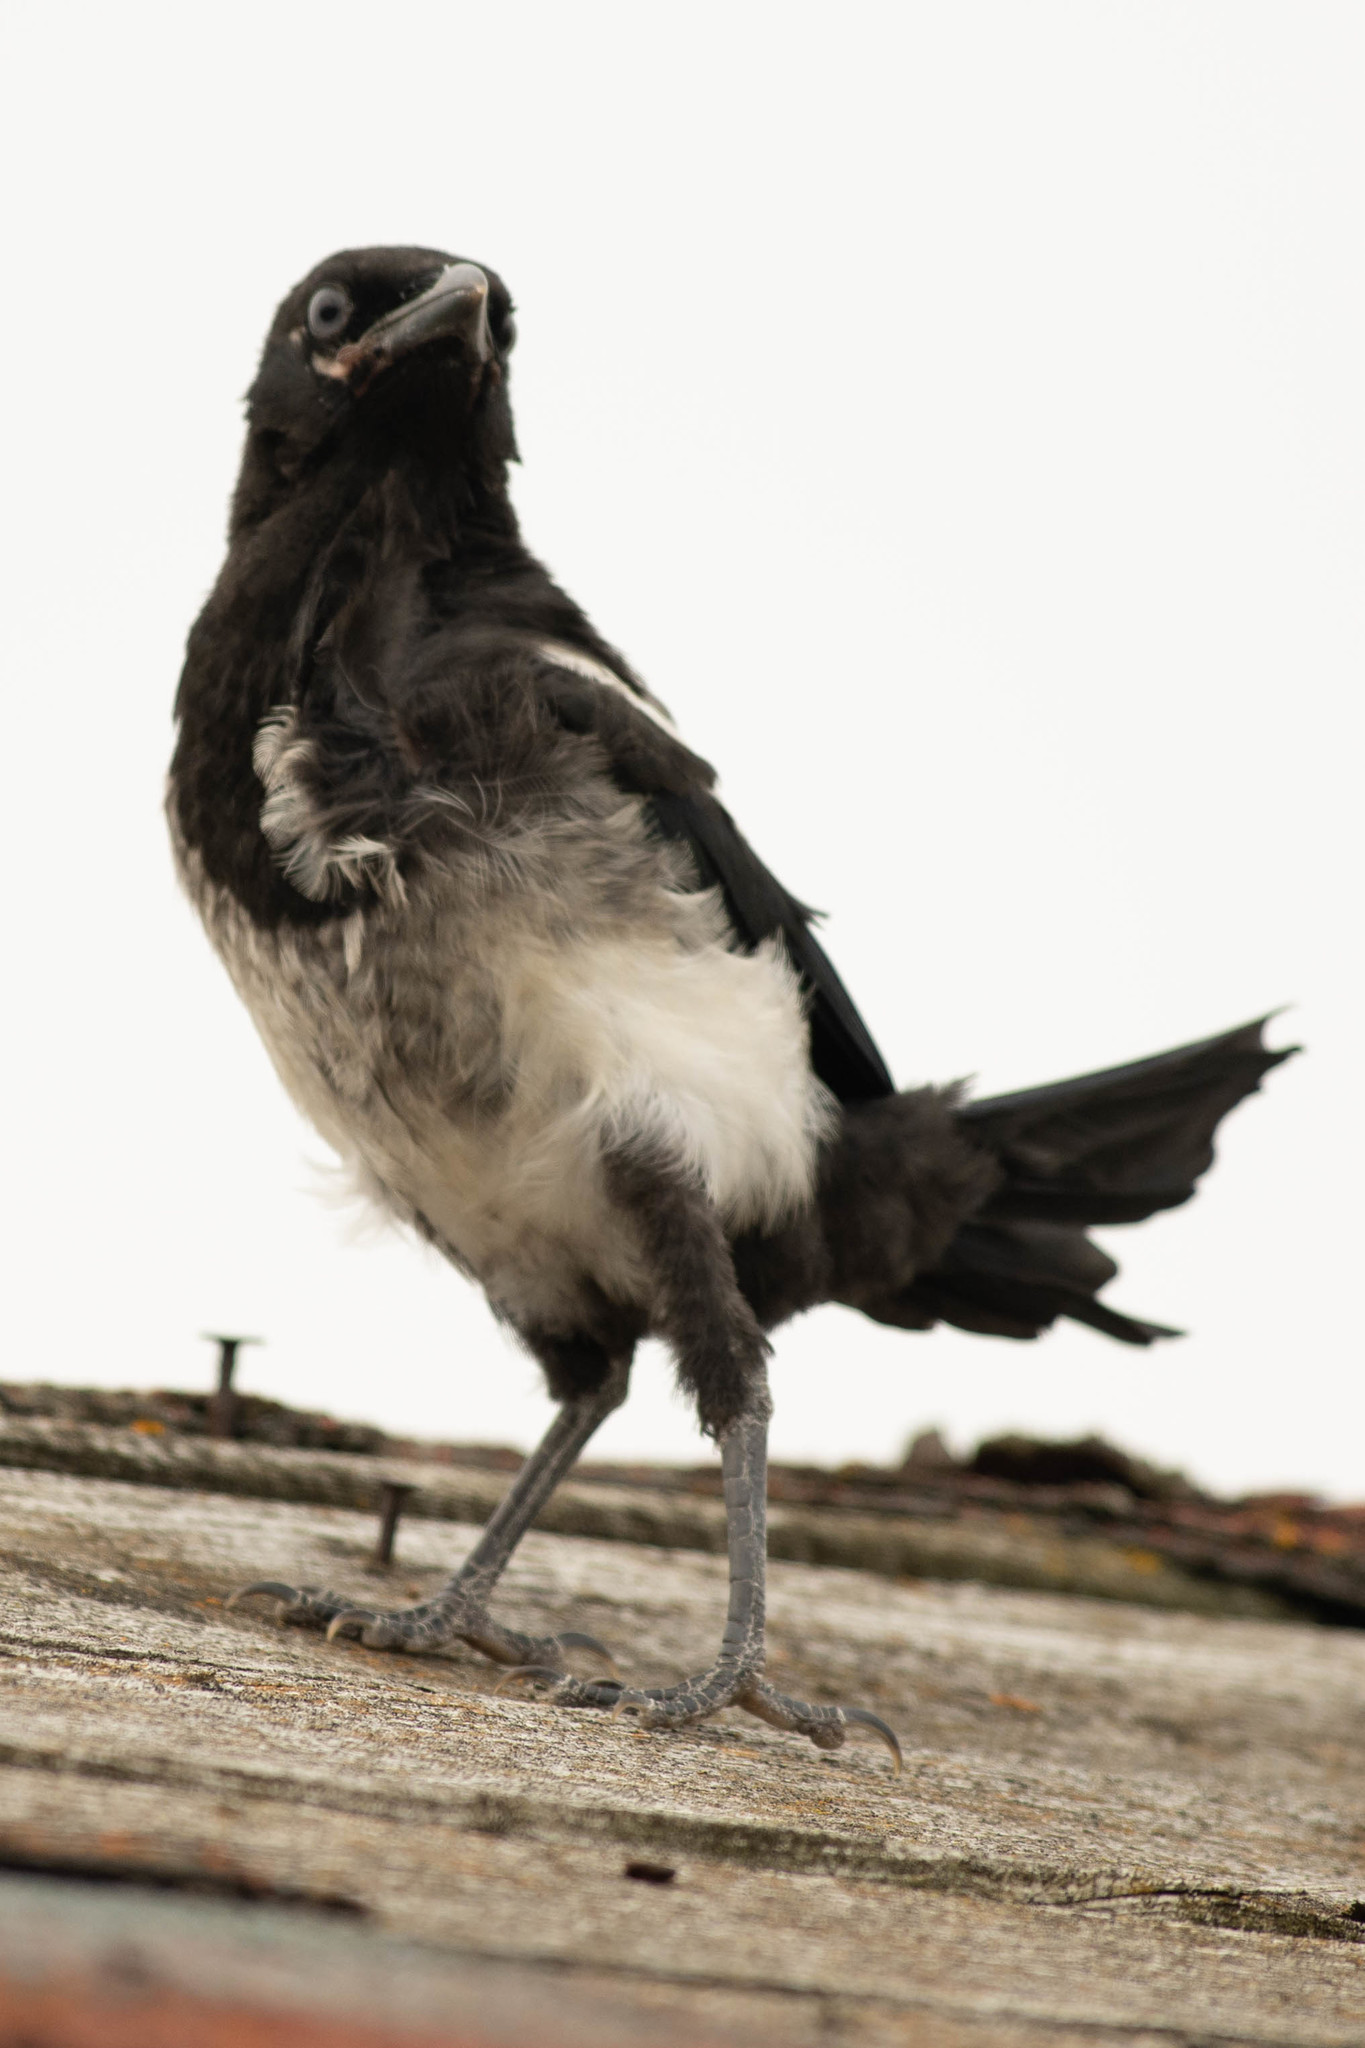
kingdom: Animalia
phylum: Chordata
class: Aves
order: Passeriformes
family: Corvidae
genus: Pica
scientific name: Pica hudsonia
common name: Black-billed magpie
